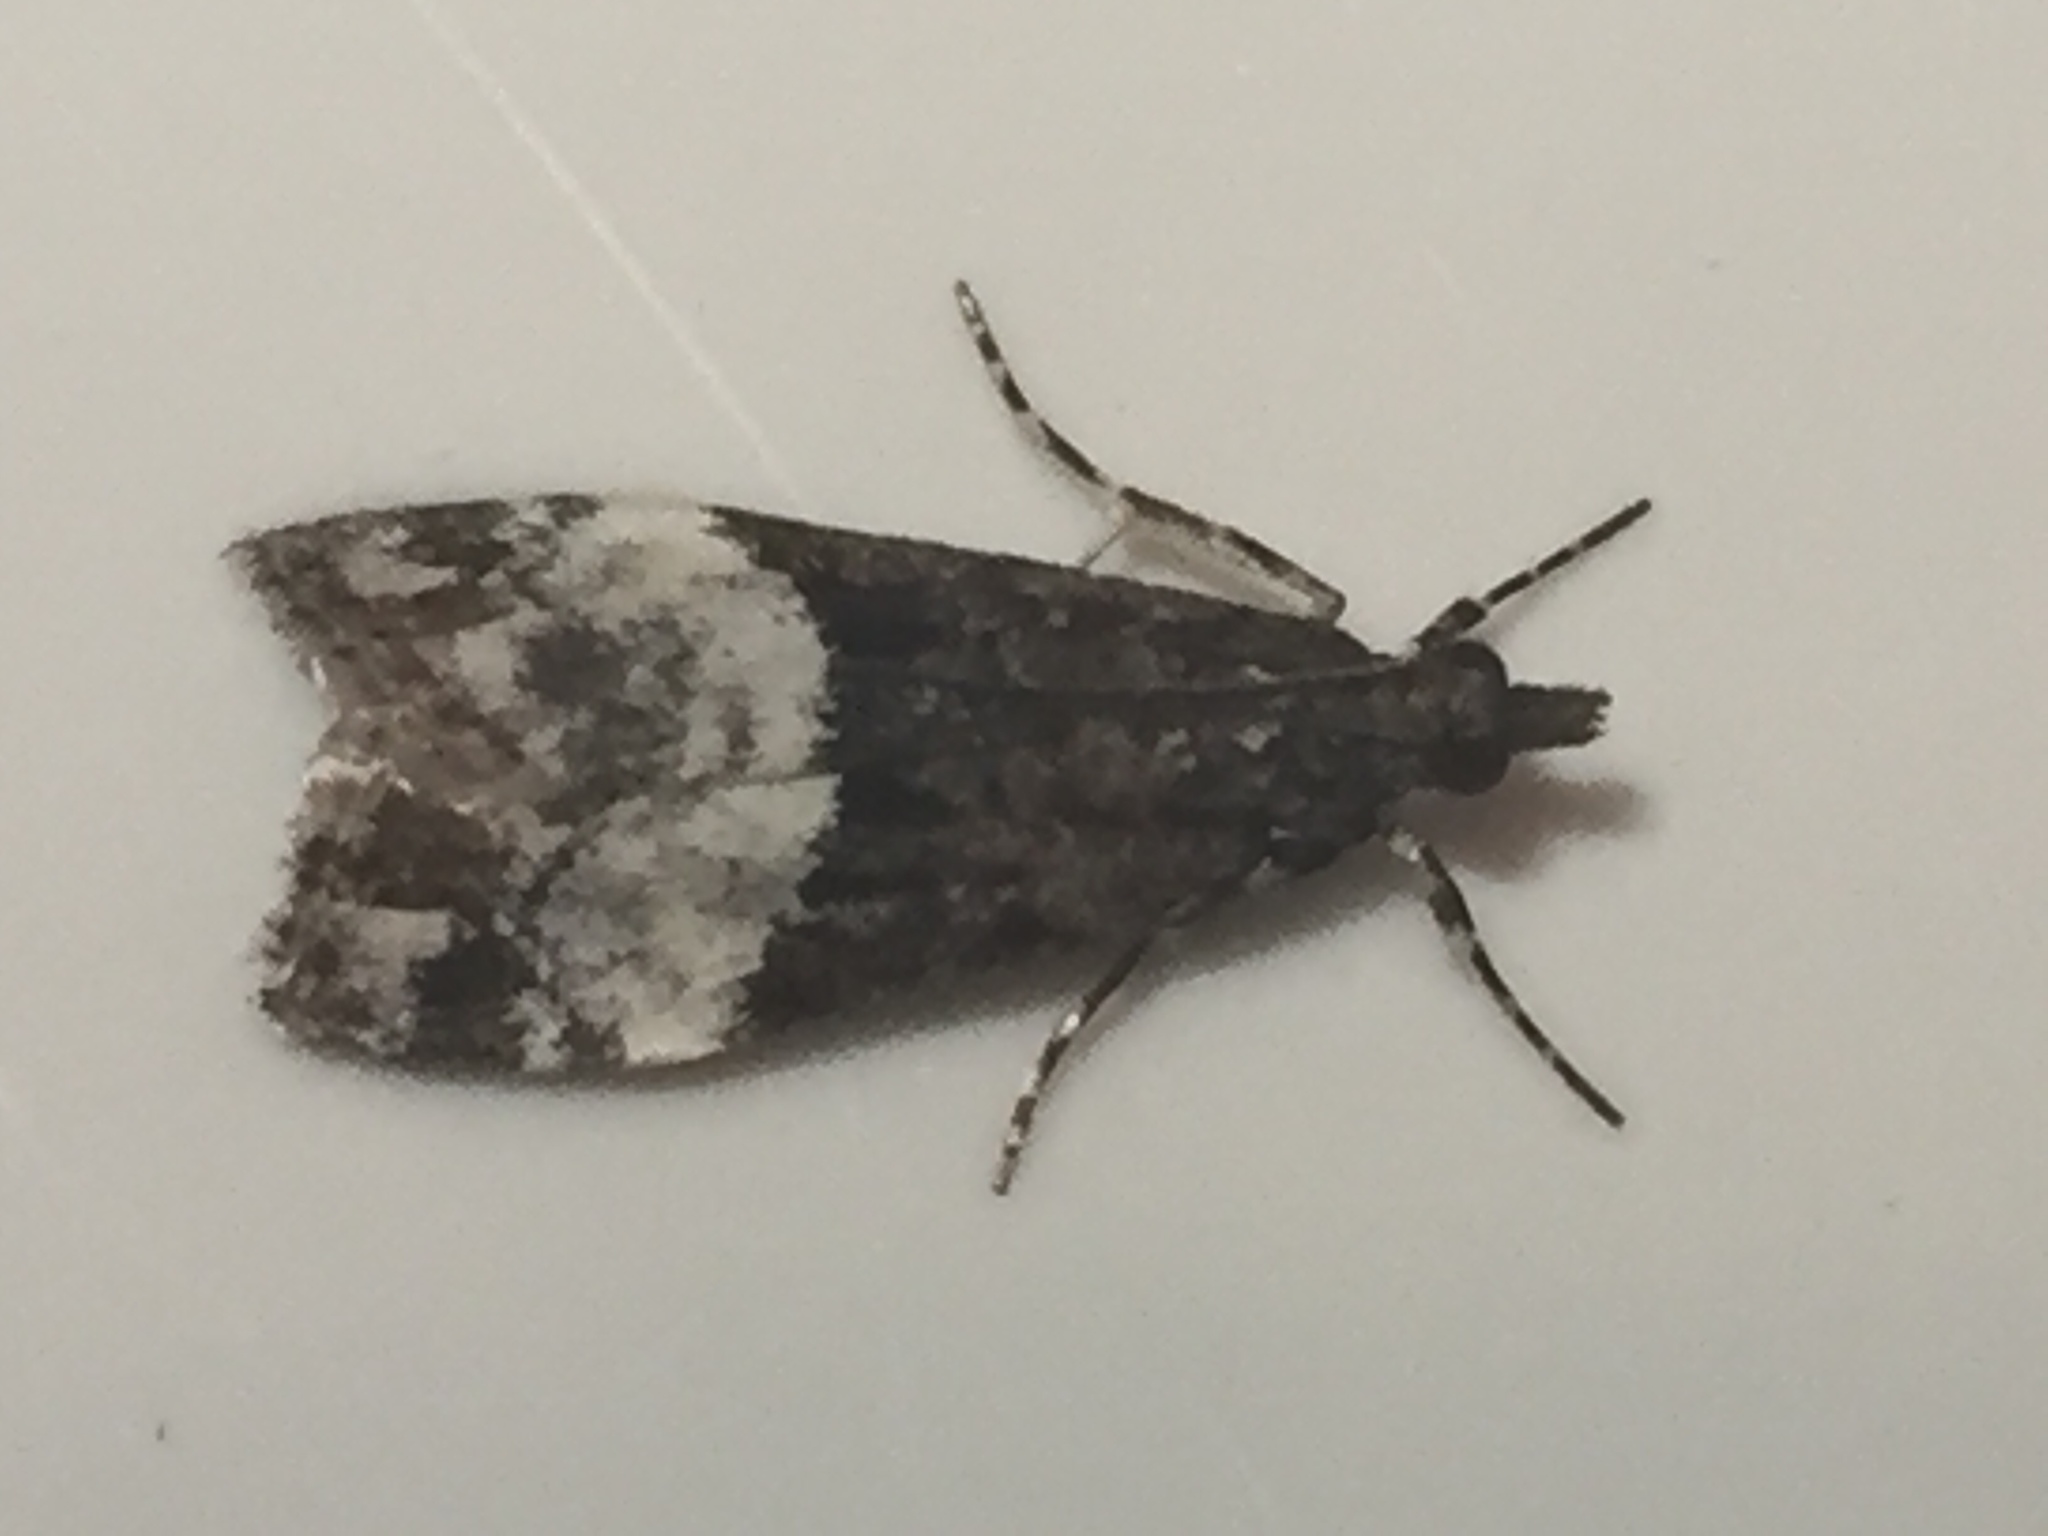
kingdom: Animalia
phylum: Arthropoda
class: Insecta
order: Lepidoptera
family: Crambidae
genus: Scoparia
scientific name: Scoparia minusculalis
